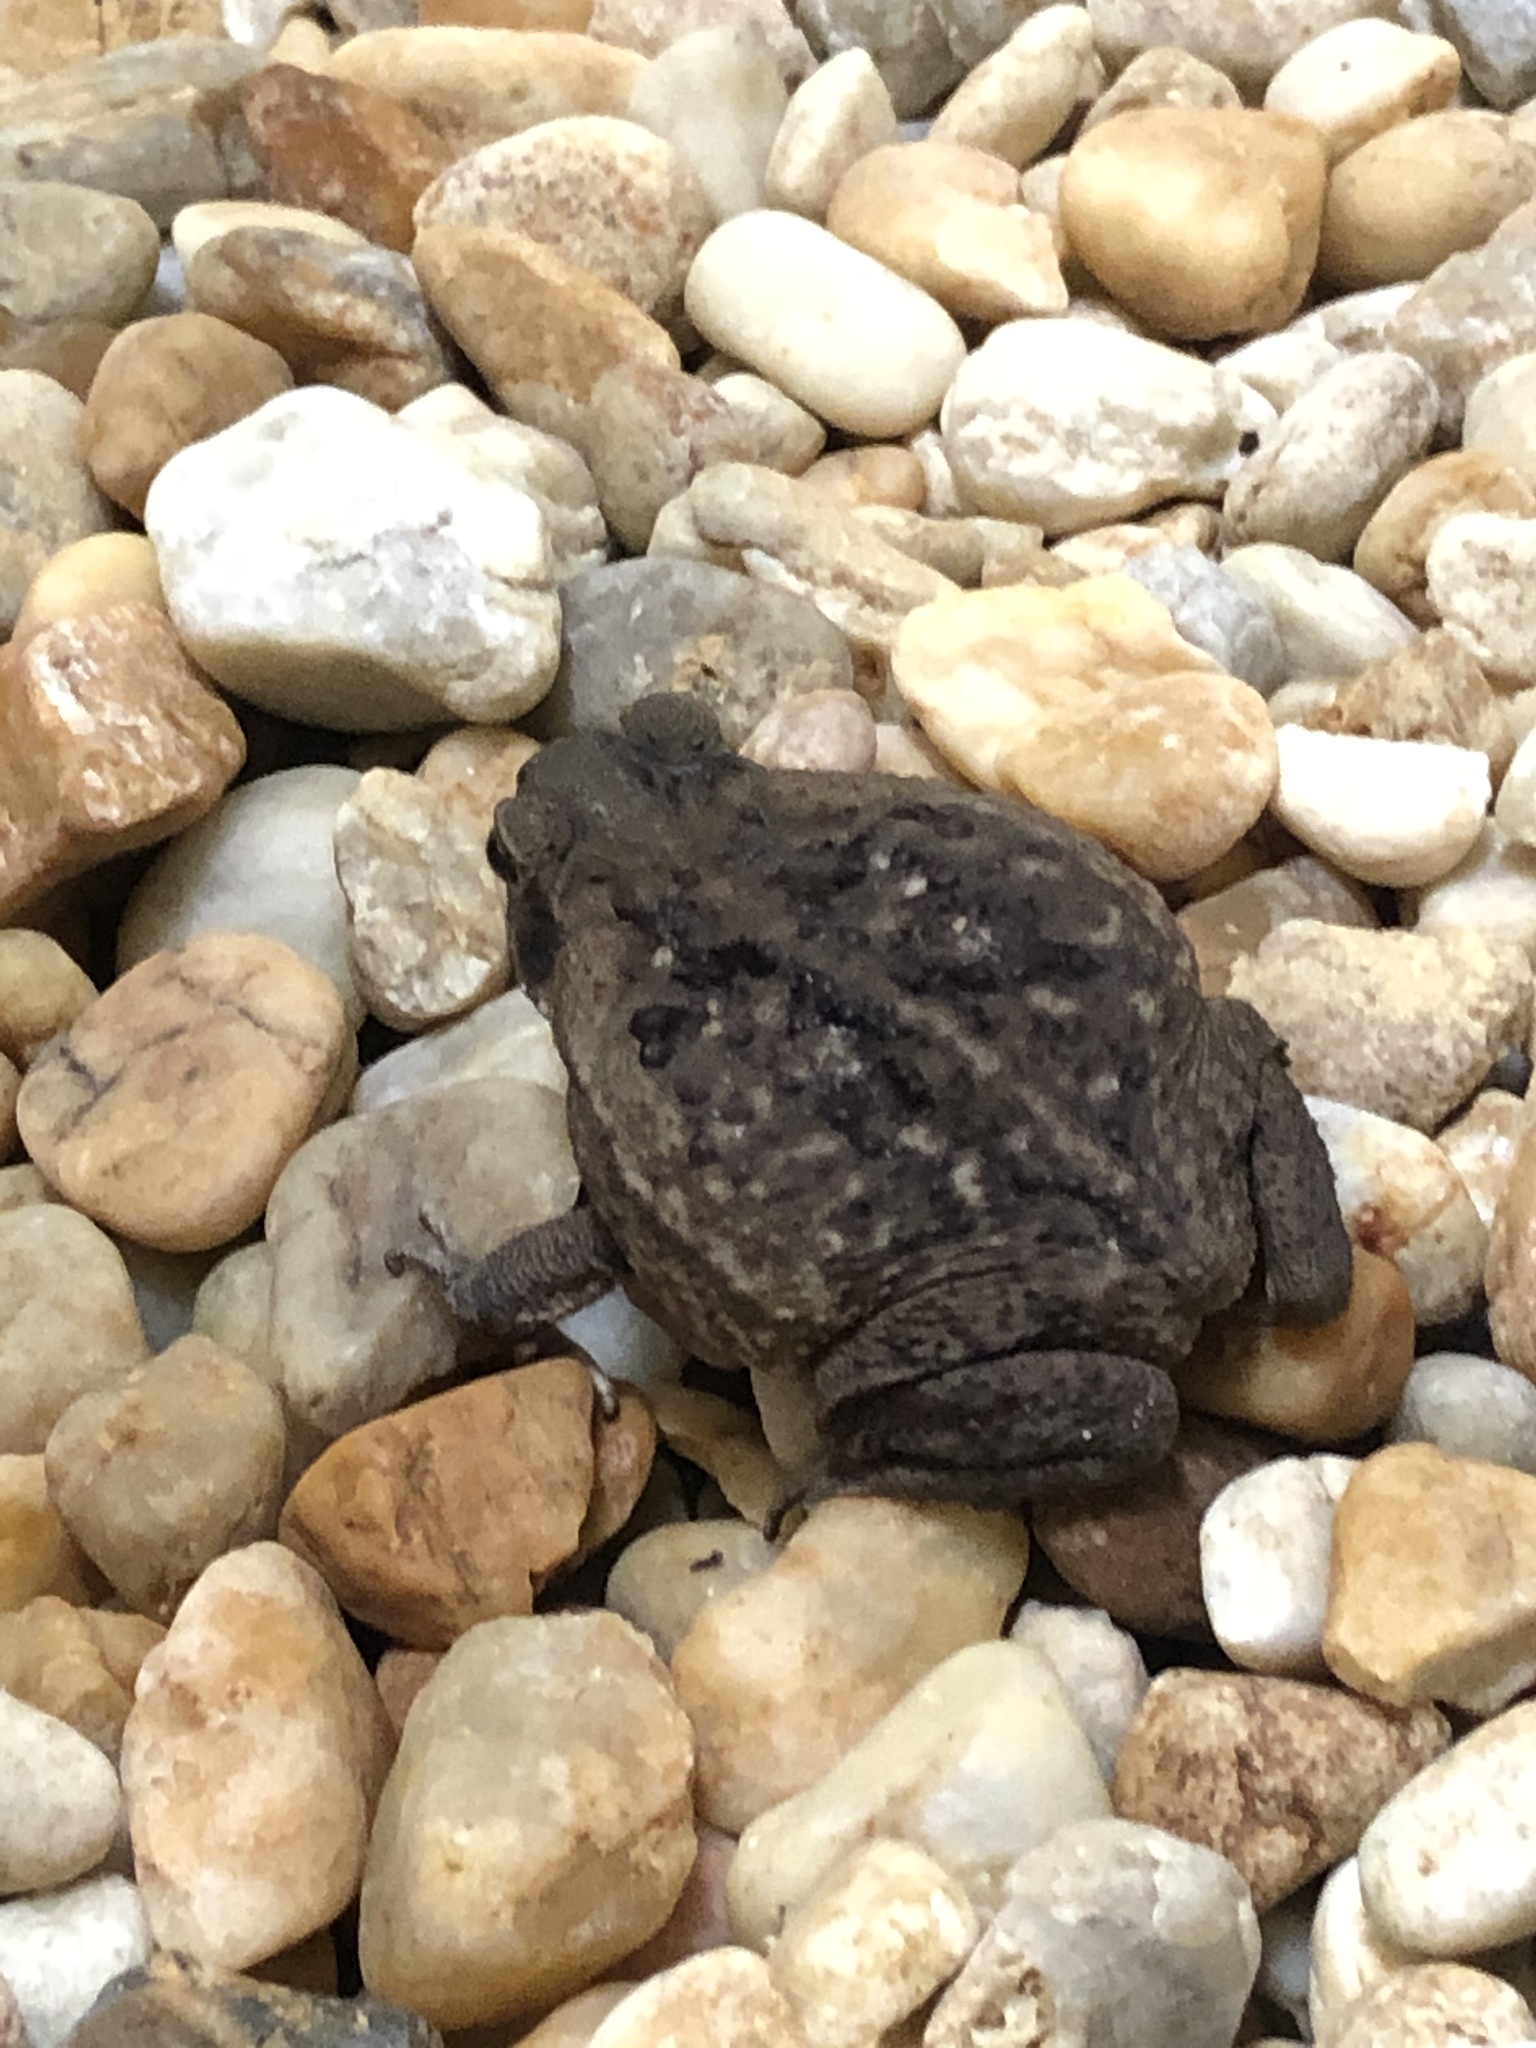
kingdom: Animalia
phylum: Chordata
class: Amphibia
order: Anura
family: Bufonidae
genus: Rhinella
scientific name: Rhinella marina
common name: Cane toad
